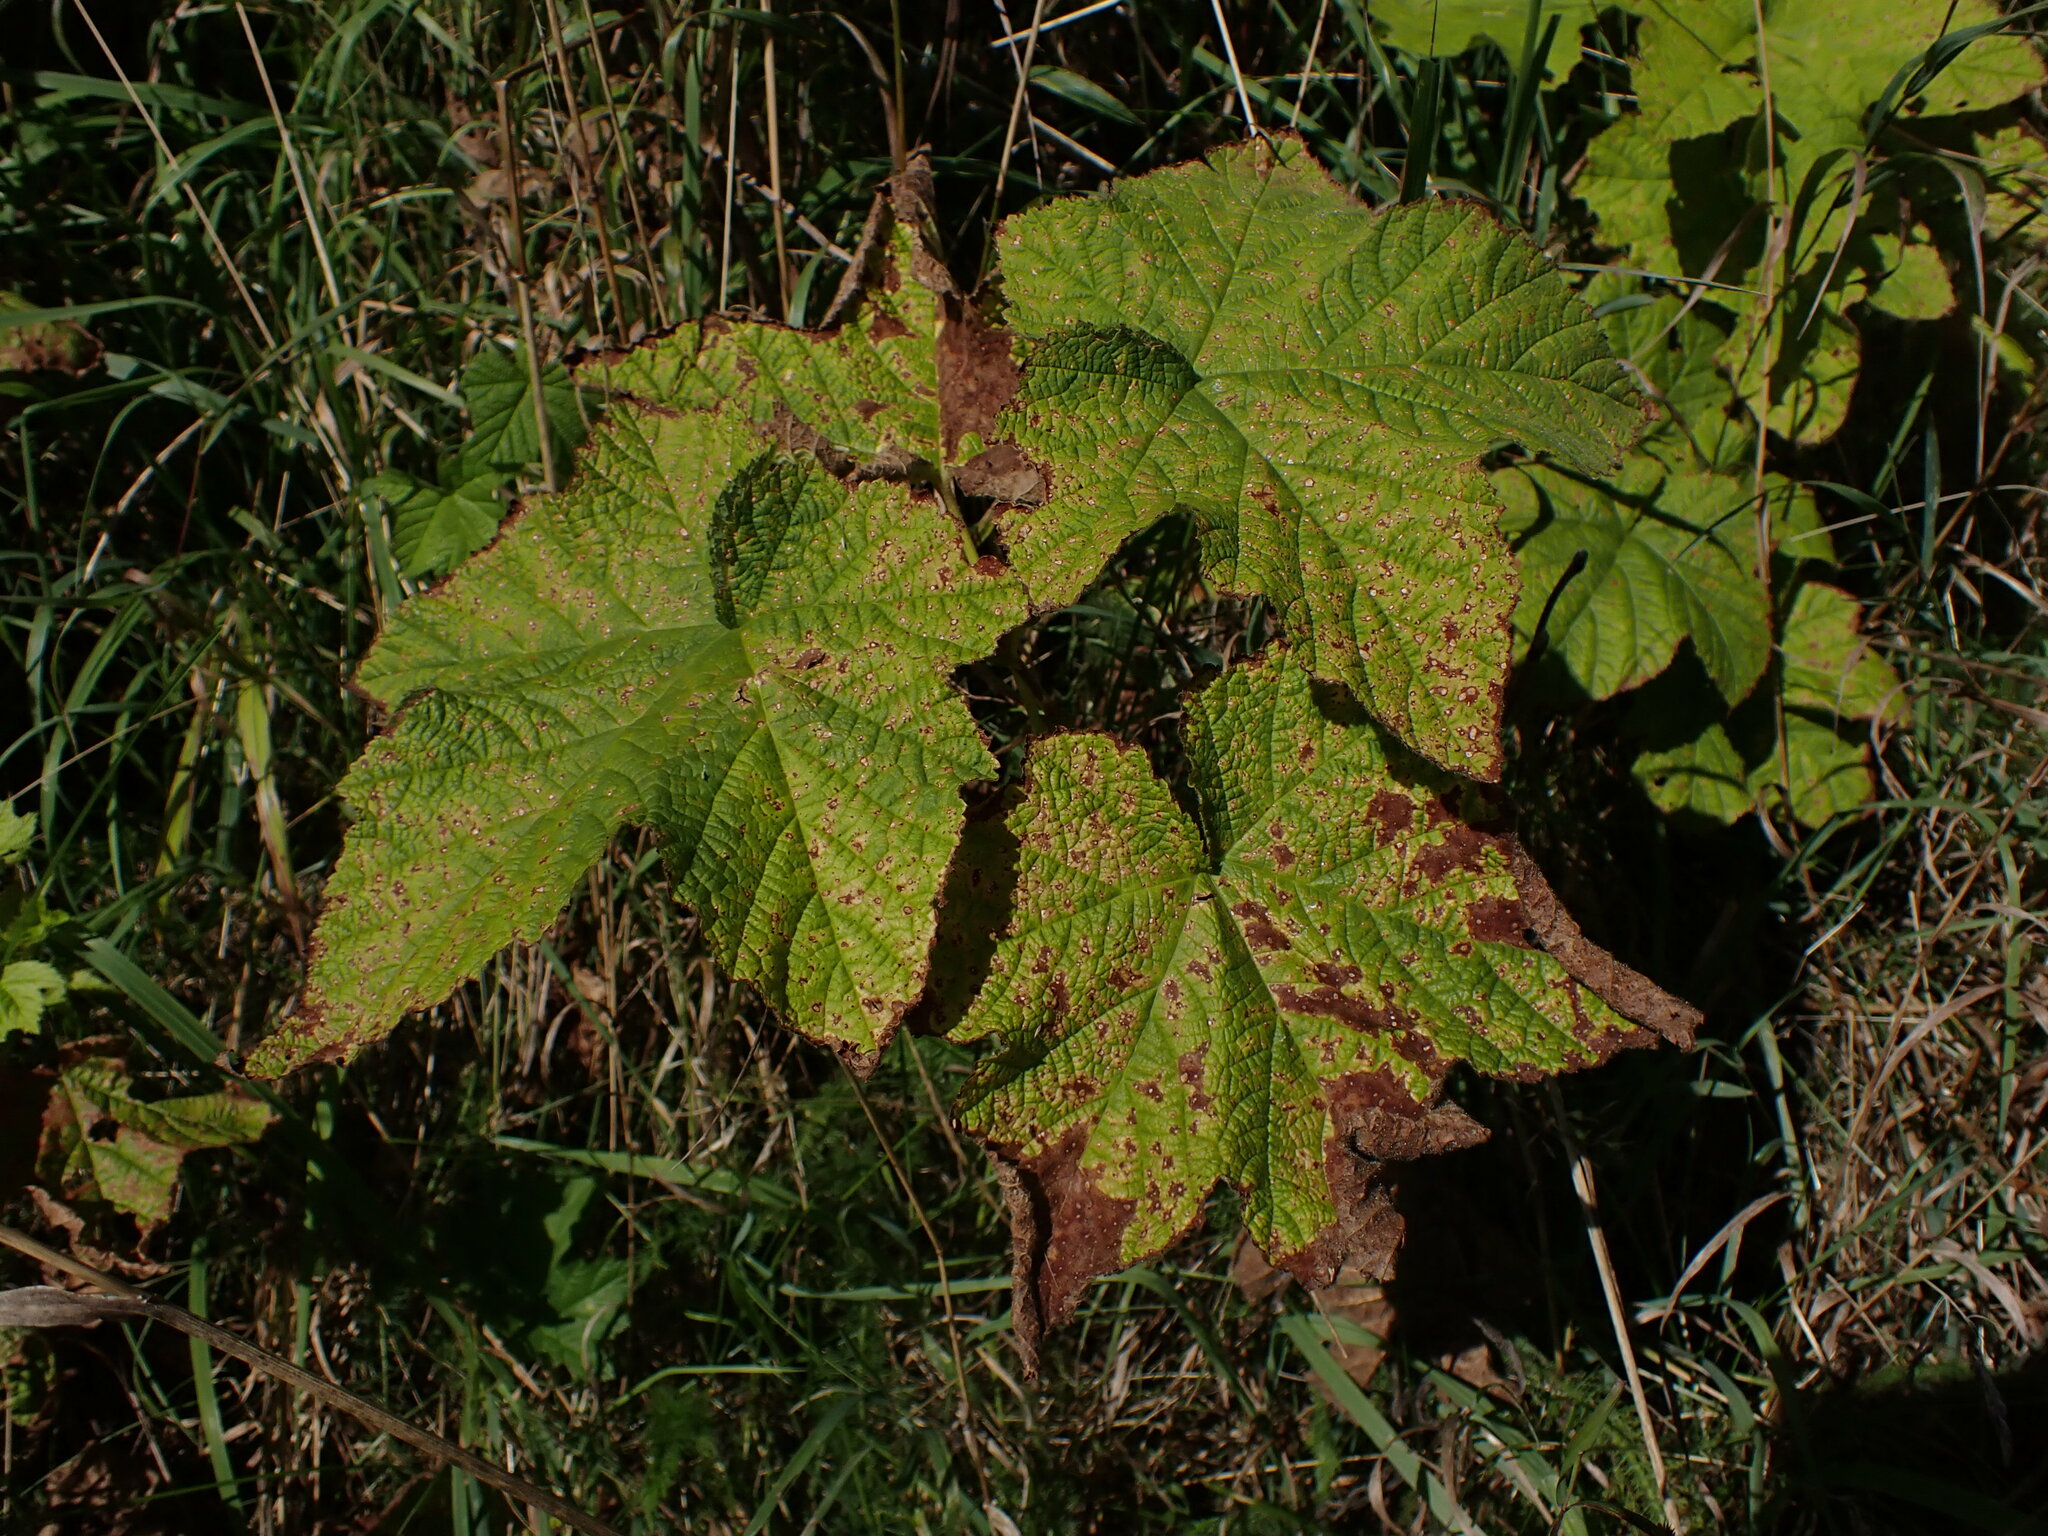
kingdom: Plantae
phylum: Tracheophyta
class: Magnoliopsida
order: Rosales
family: Rosaceae
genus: Rubus
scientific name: Rubus parviflorus
